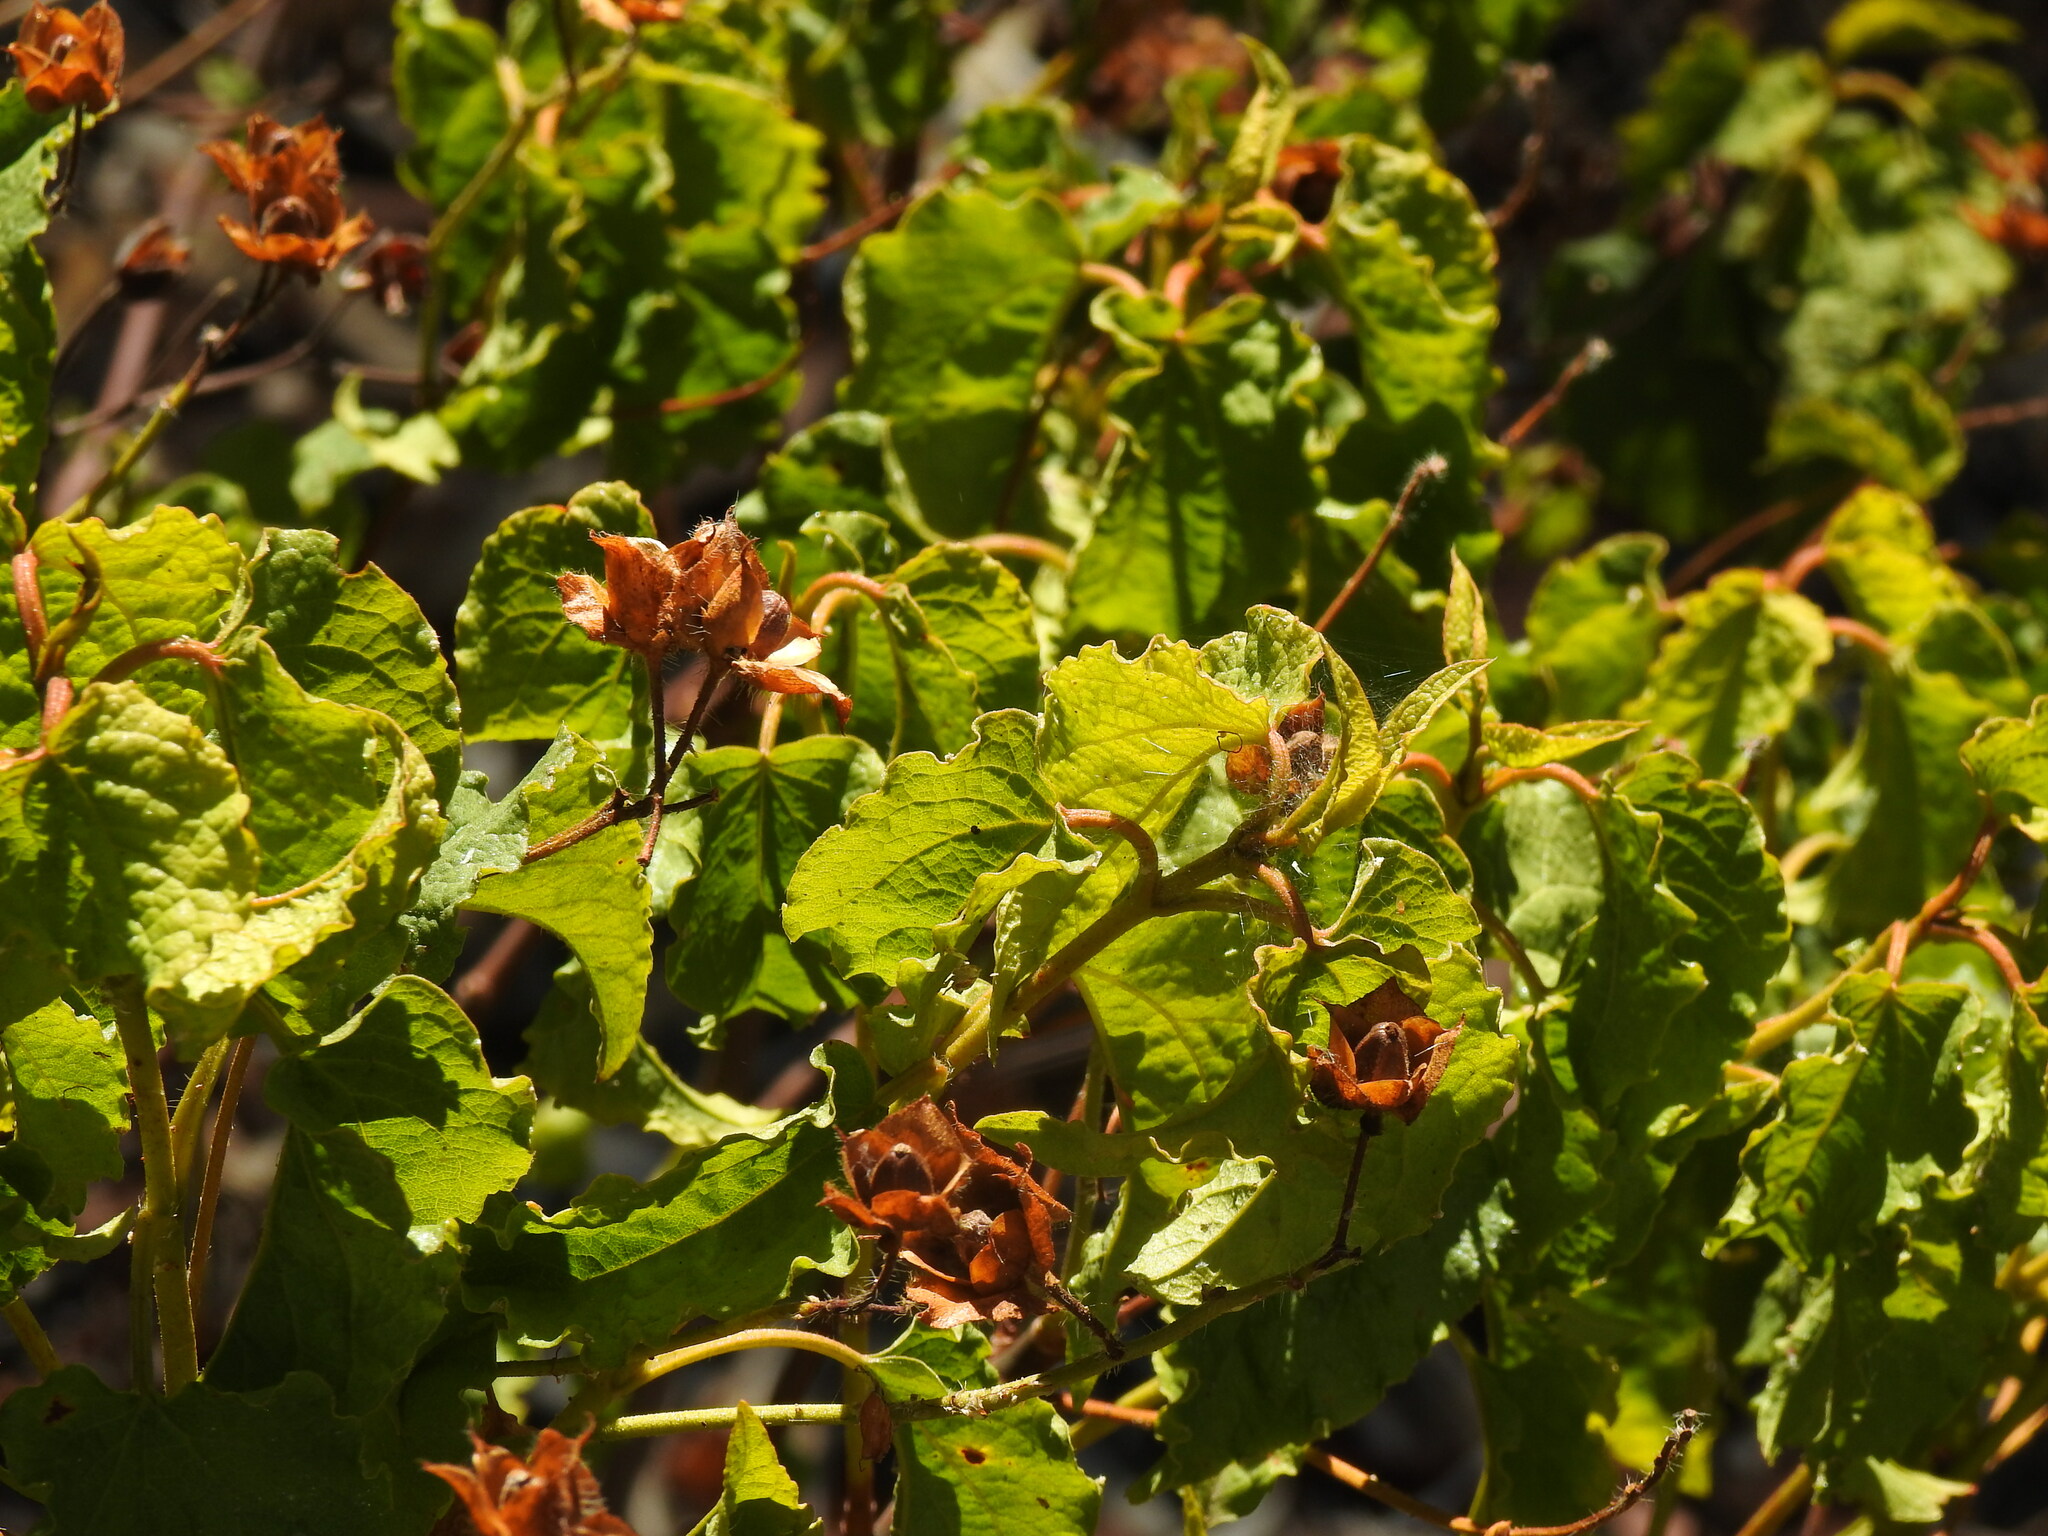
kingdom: Plantae
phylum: Tracheophyta
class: Magnoliopsida
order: Malvales
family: Cistaceae
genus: Cistus
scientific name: Cistus populifolius
